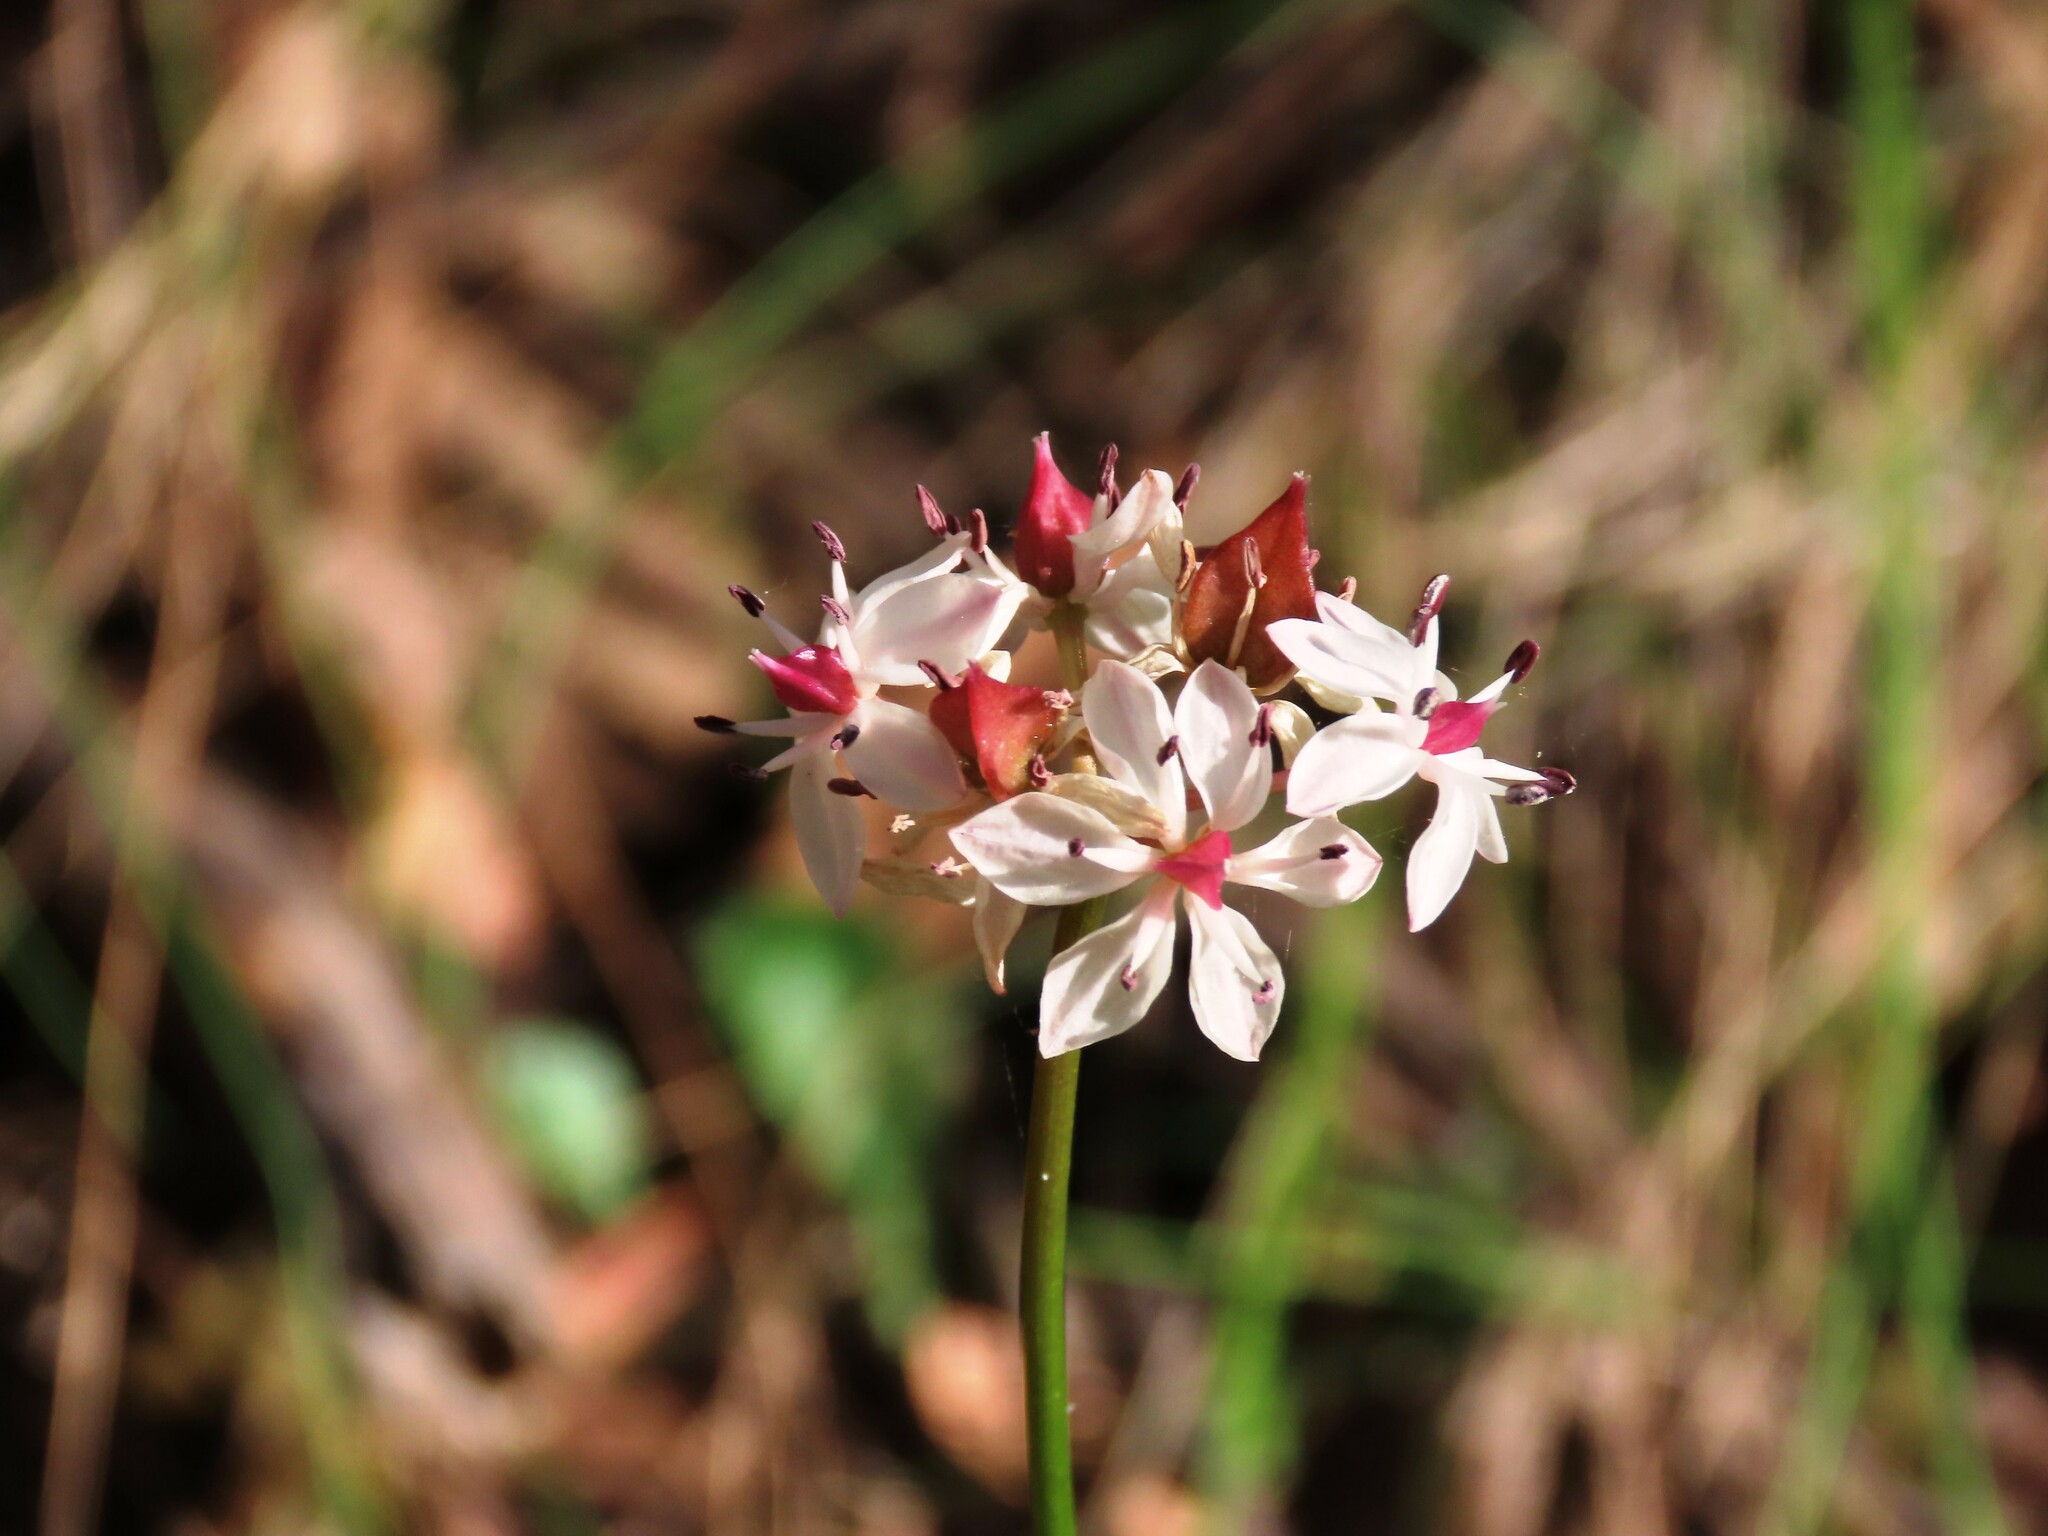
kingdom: Plantae
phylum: Tracheophyta
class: Liliopsida
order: Liliales
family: Colchicaceae
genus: Burchardia
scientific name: Burchardia umbellata
